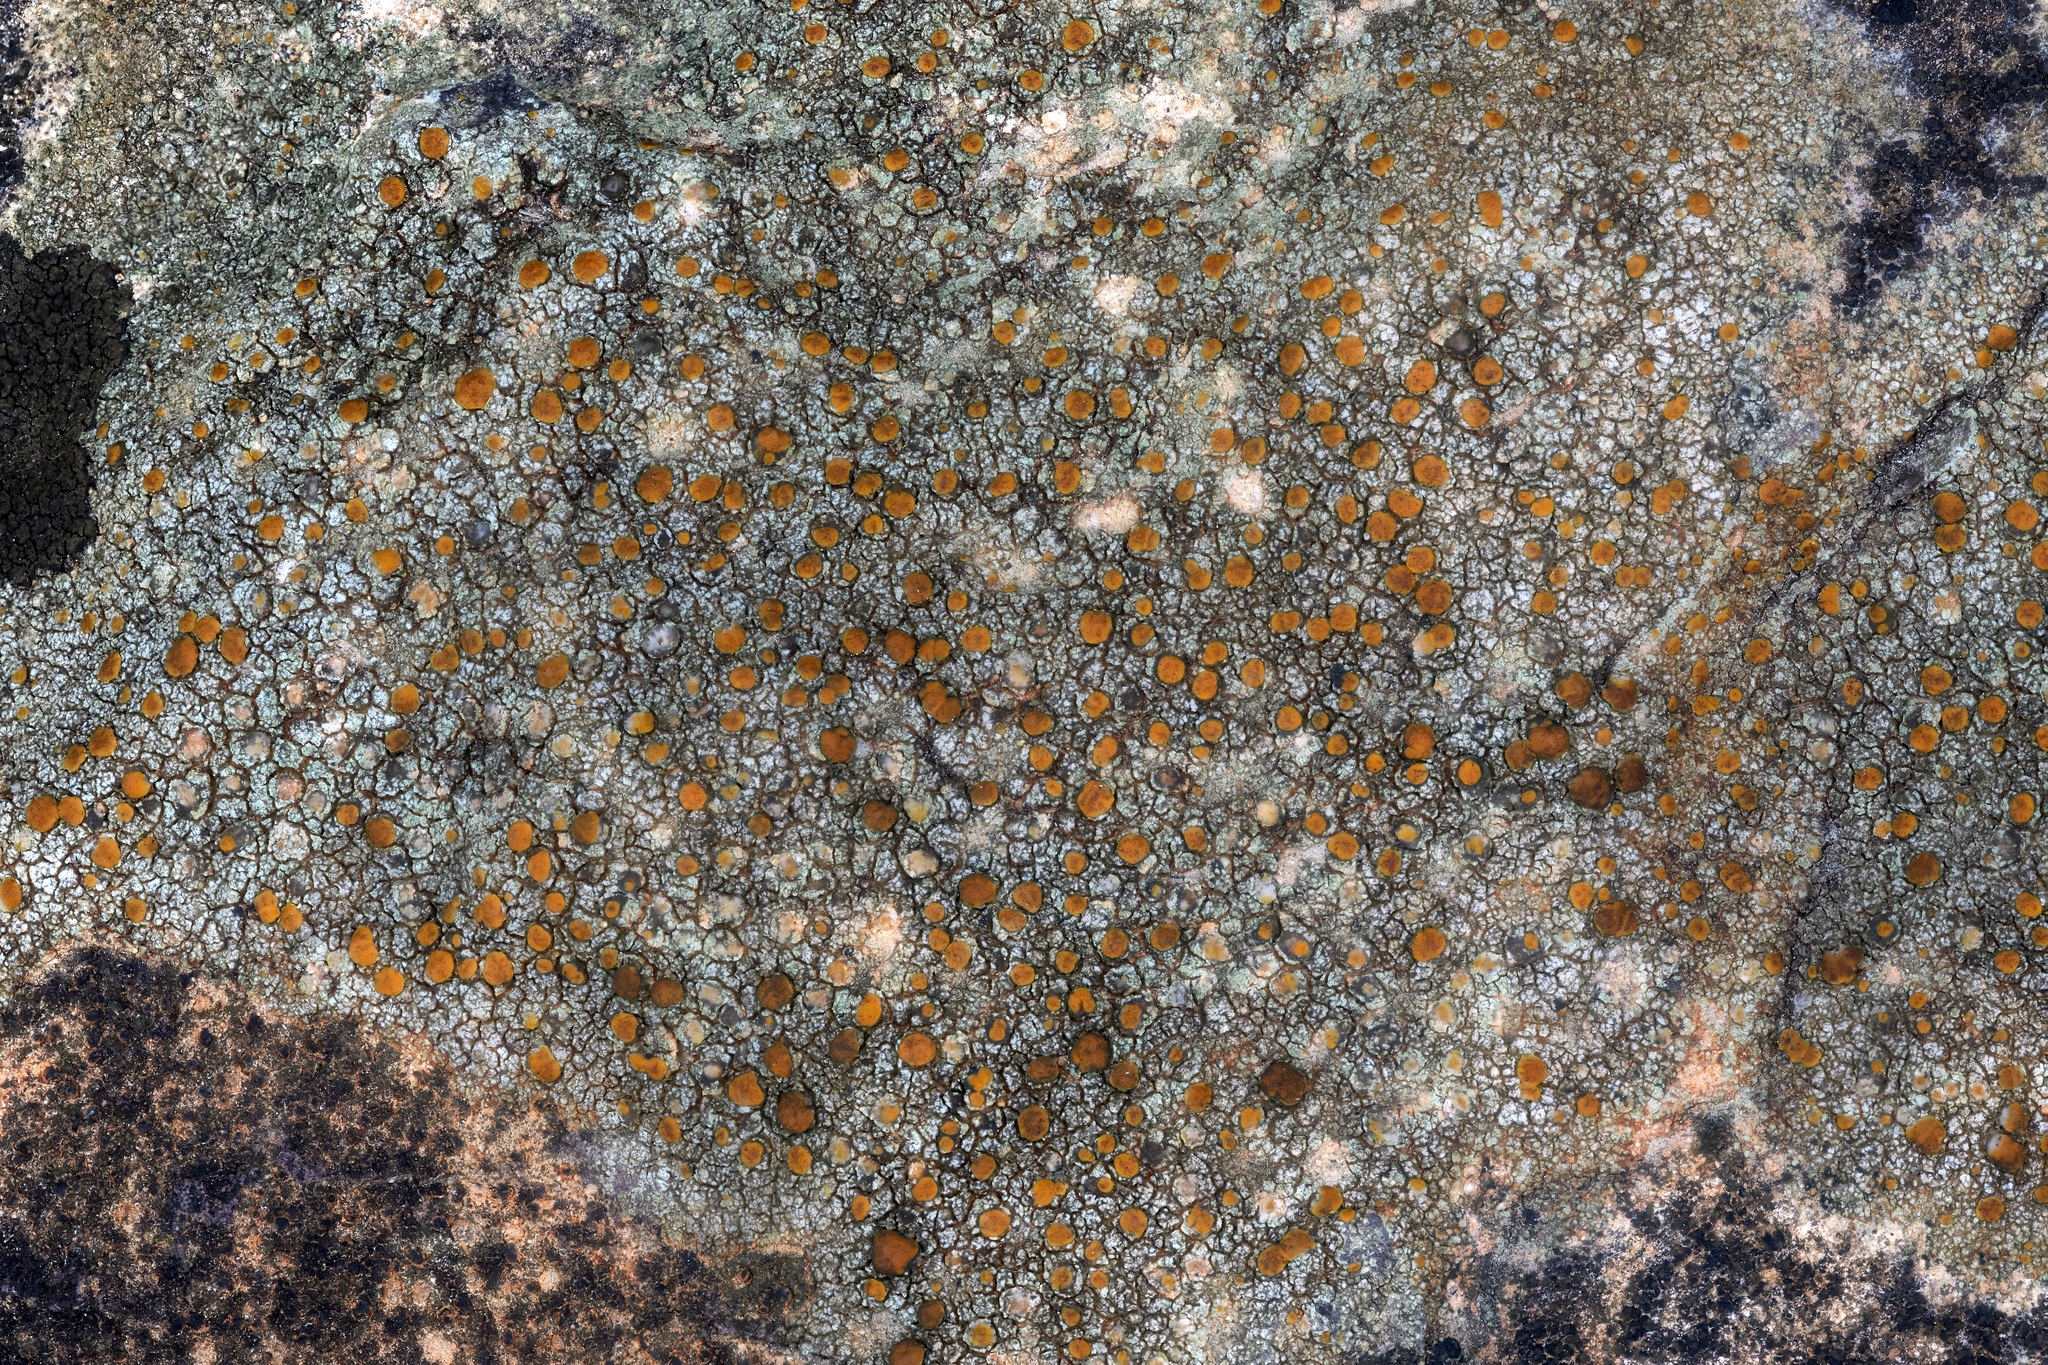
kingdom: Fungi
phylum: Ascomycota
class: Lecanoromycetes
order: Lecanorales
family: Psoraceae
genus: Protoblastenia
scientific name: Protoblastenia rupestris
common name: Chewing gum lichen
